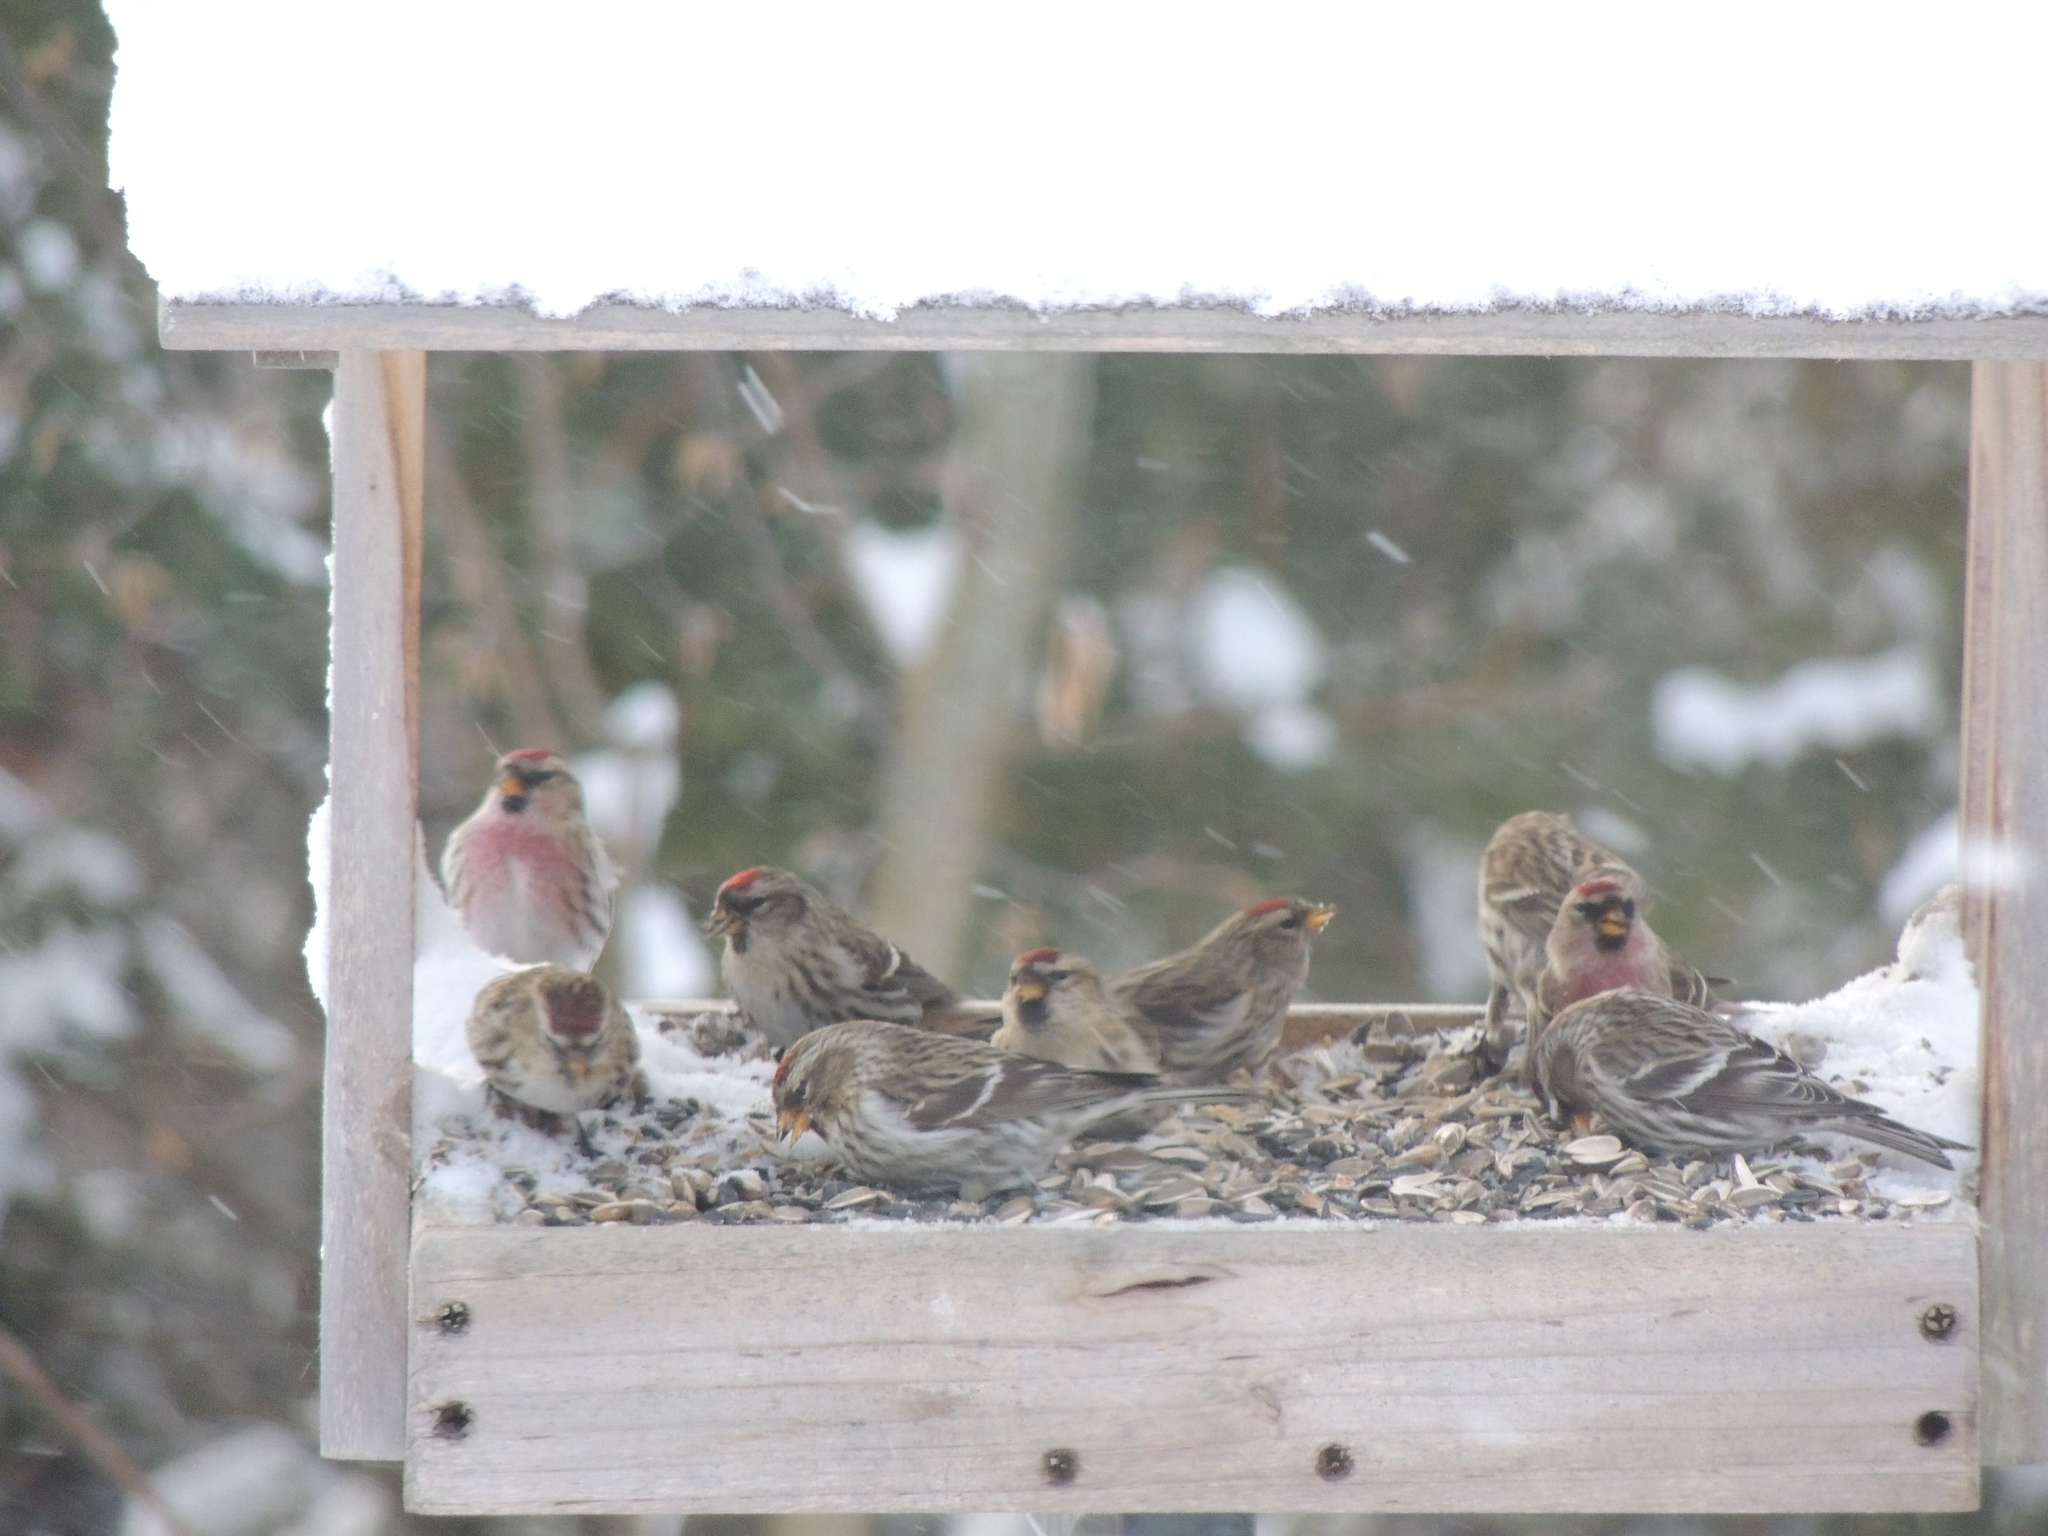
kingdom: Animalia
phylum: Chordata
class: Aves
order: Passeriformes
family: Fringillidae
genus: Acanthis
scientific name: Acanthis flammea
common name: Common redpoll
